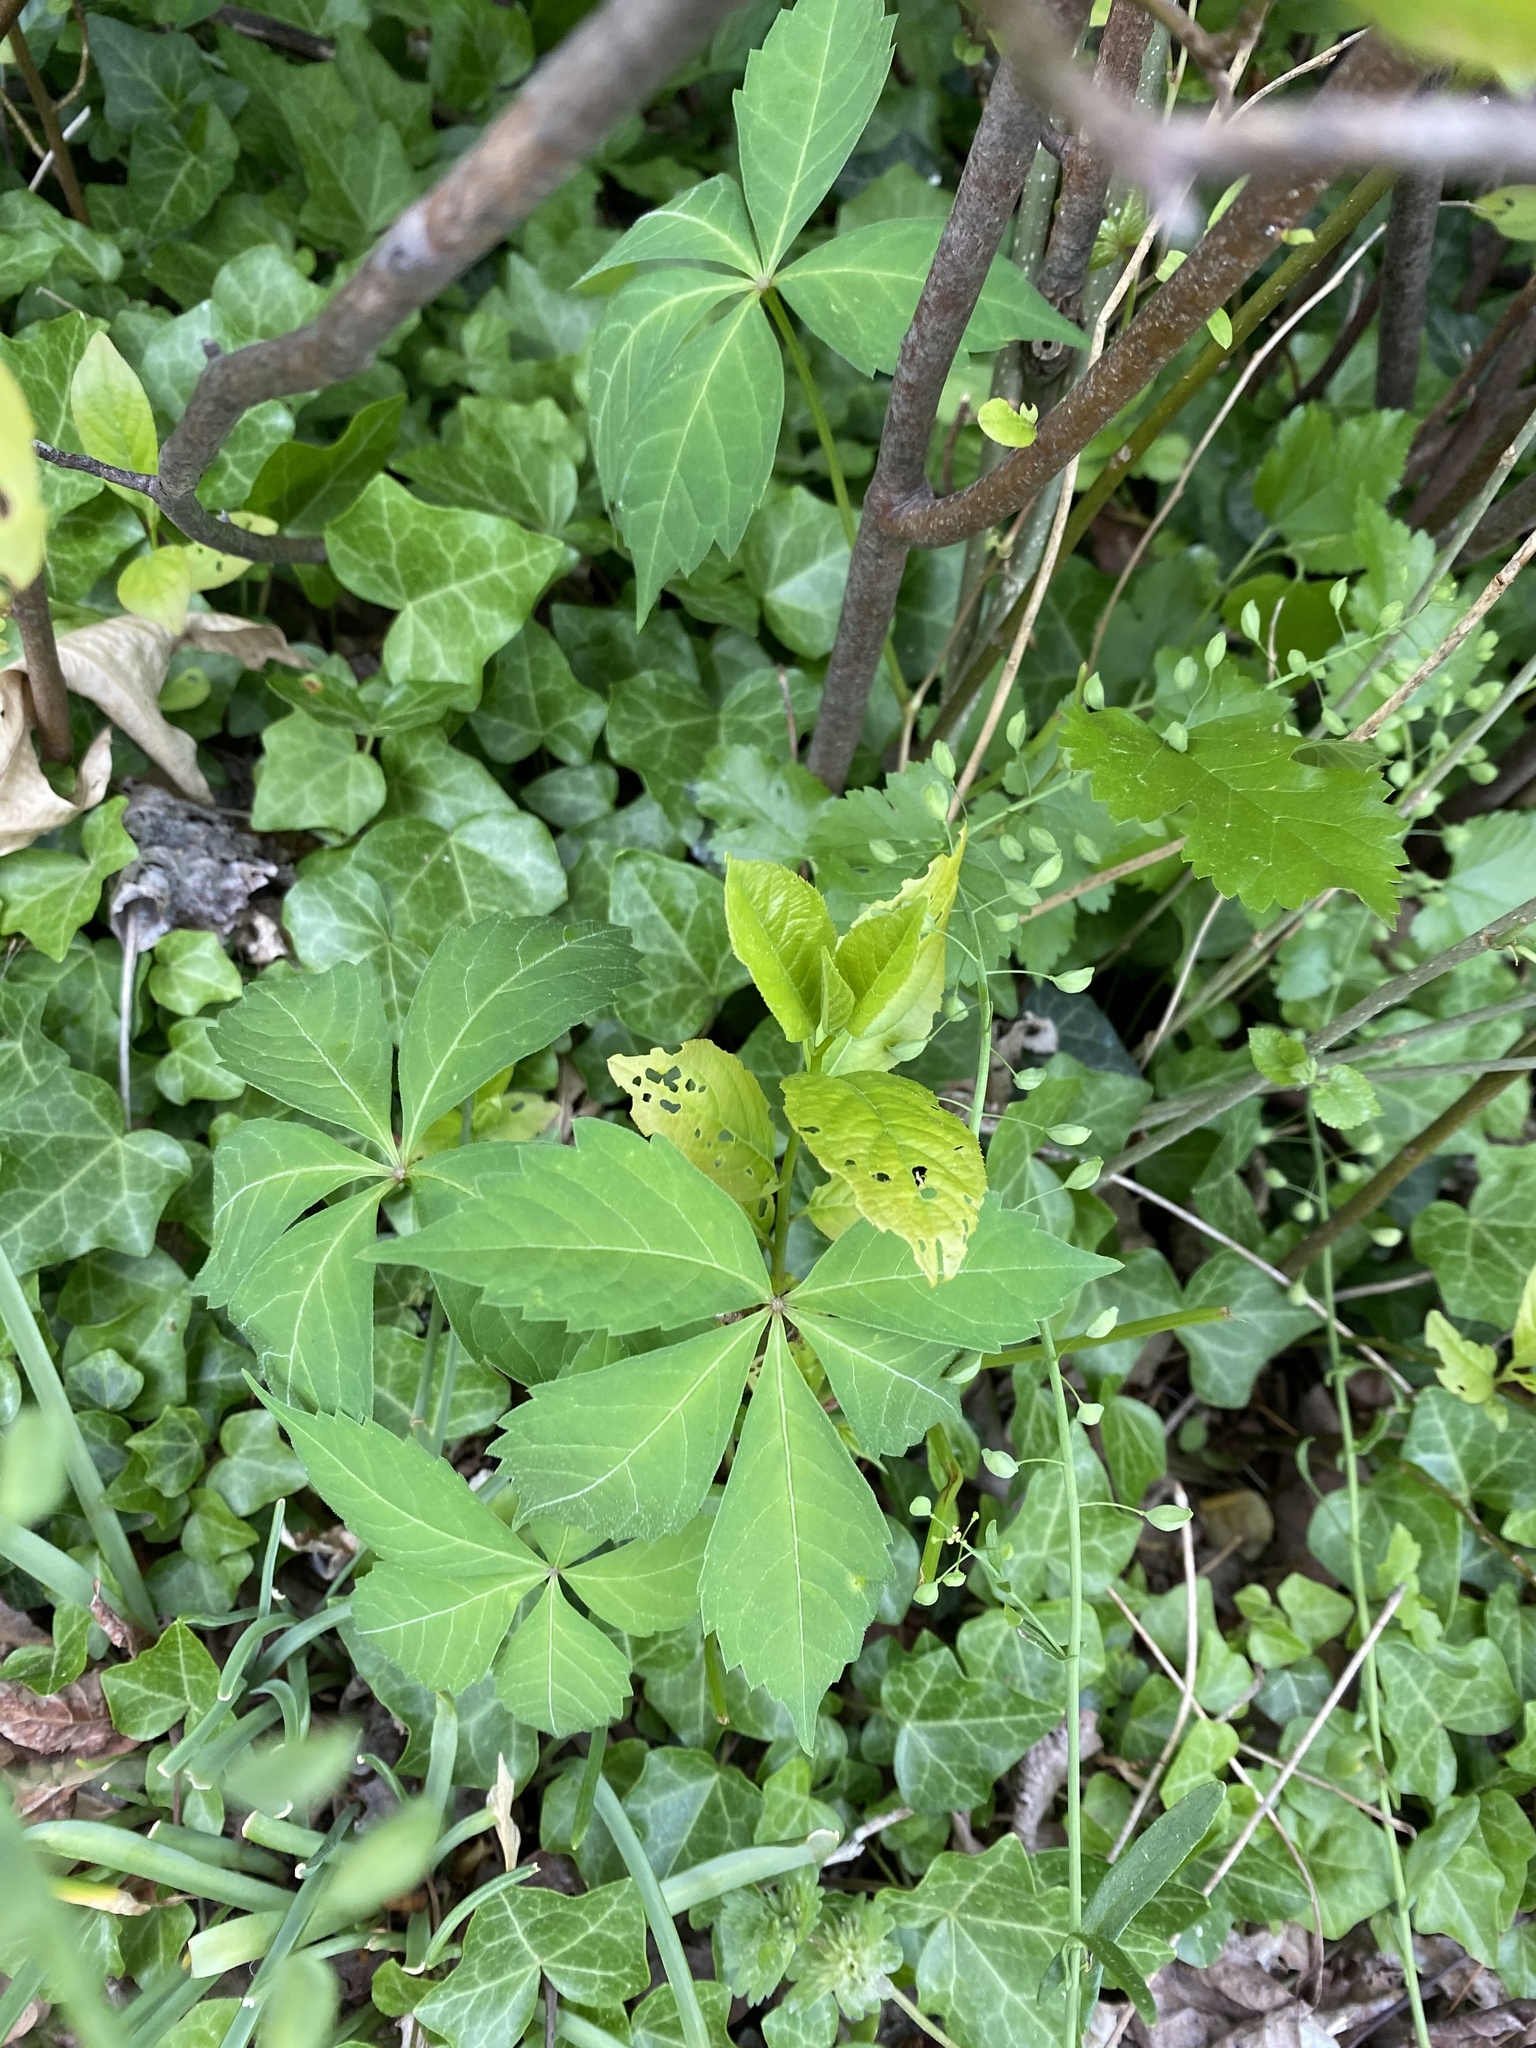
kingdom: Plantae
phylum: Tracheophyta
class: Magnoliopsida
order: Vitales
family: Vitaceae
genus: Parthenocissus
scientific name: Parthenocissus quinquefolia
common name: Virginia-creeper
